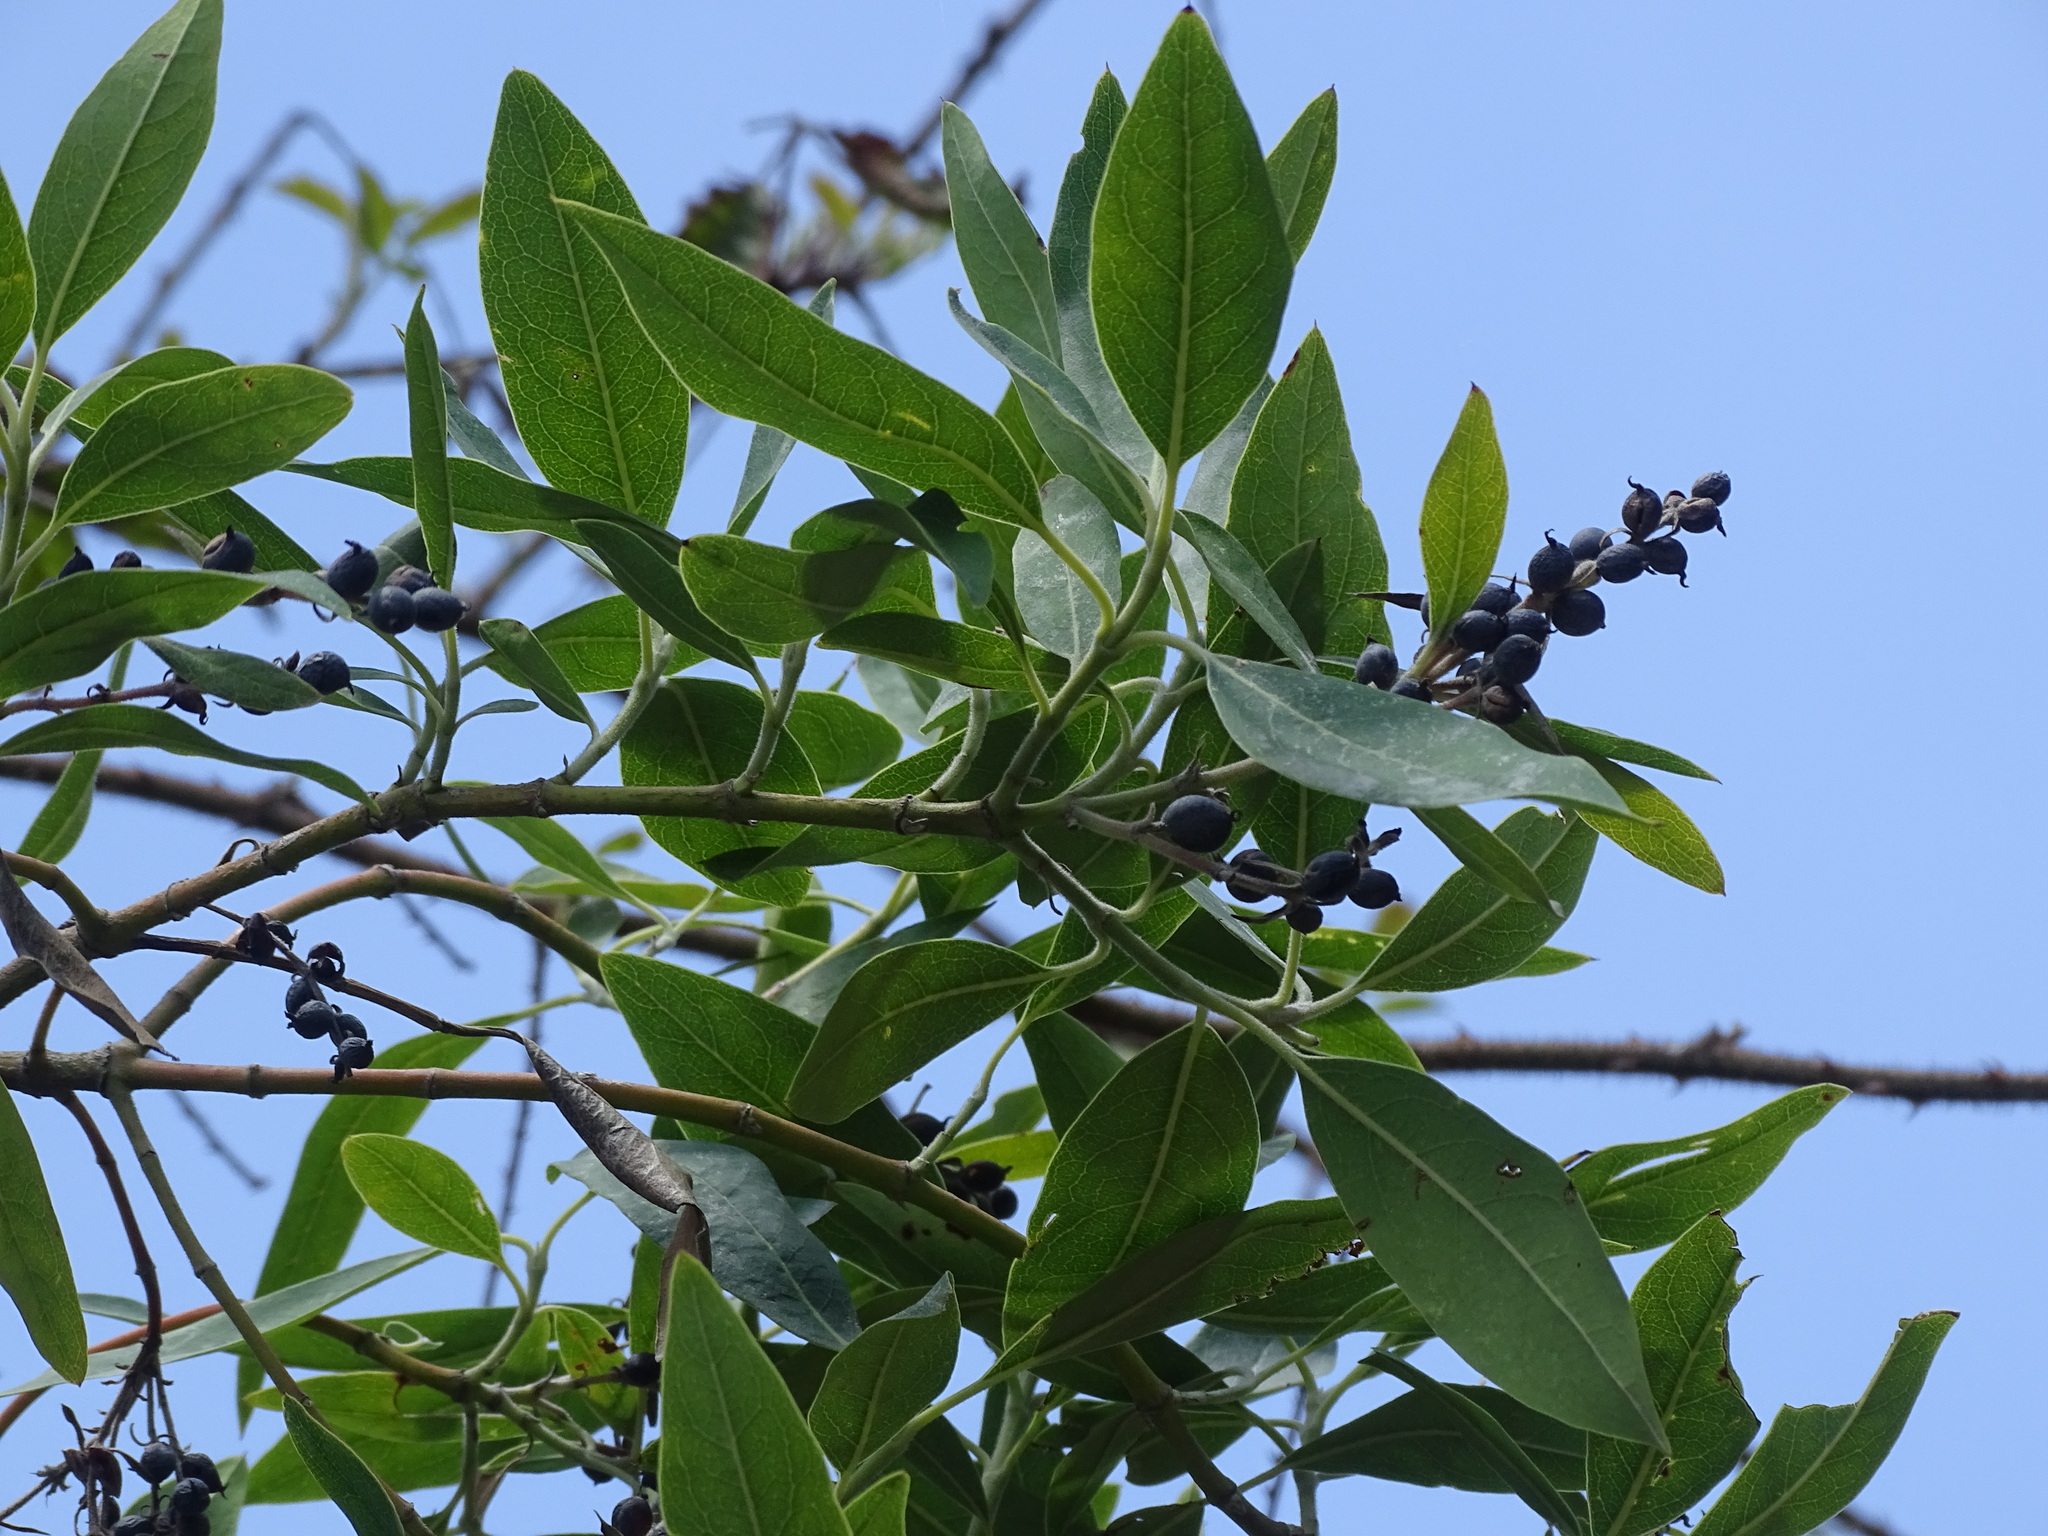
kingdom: Plantae
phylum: Tracheophyta
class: Magnoliopsida
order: Garryales
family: Garryaceae
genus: Garrya
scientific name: Garrya laurifolia
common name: Cuachichic
